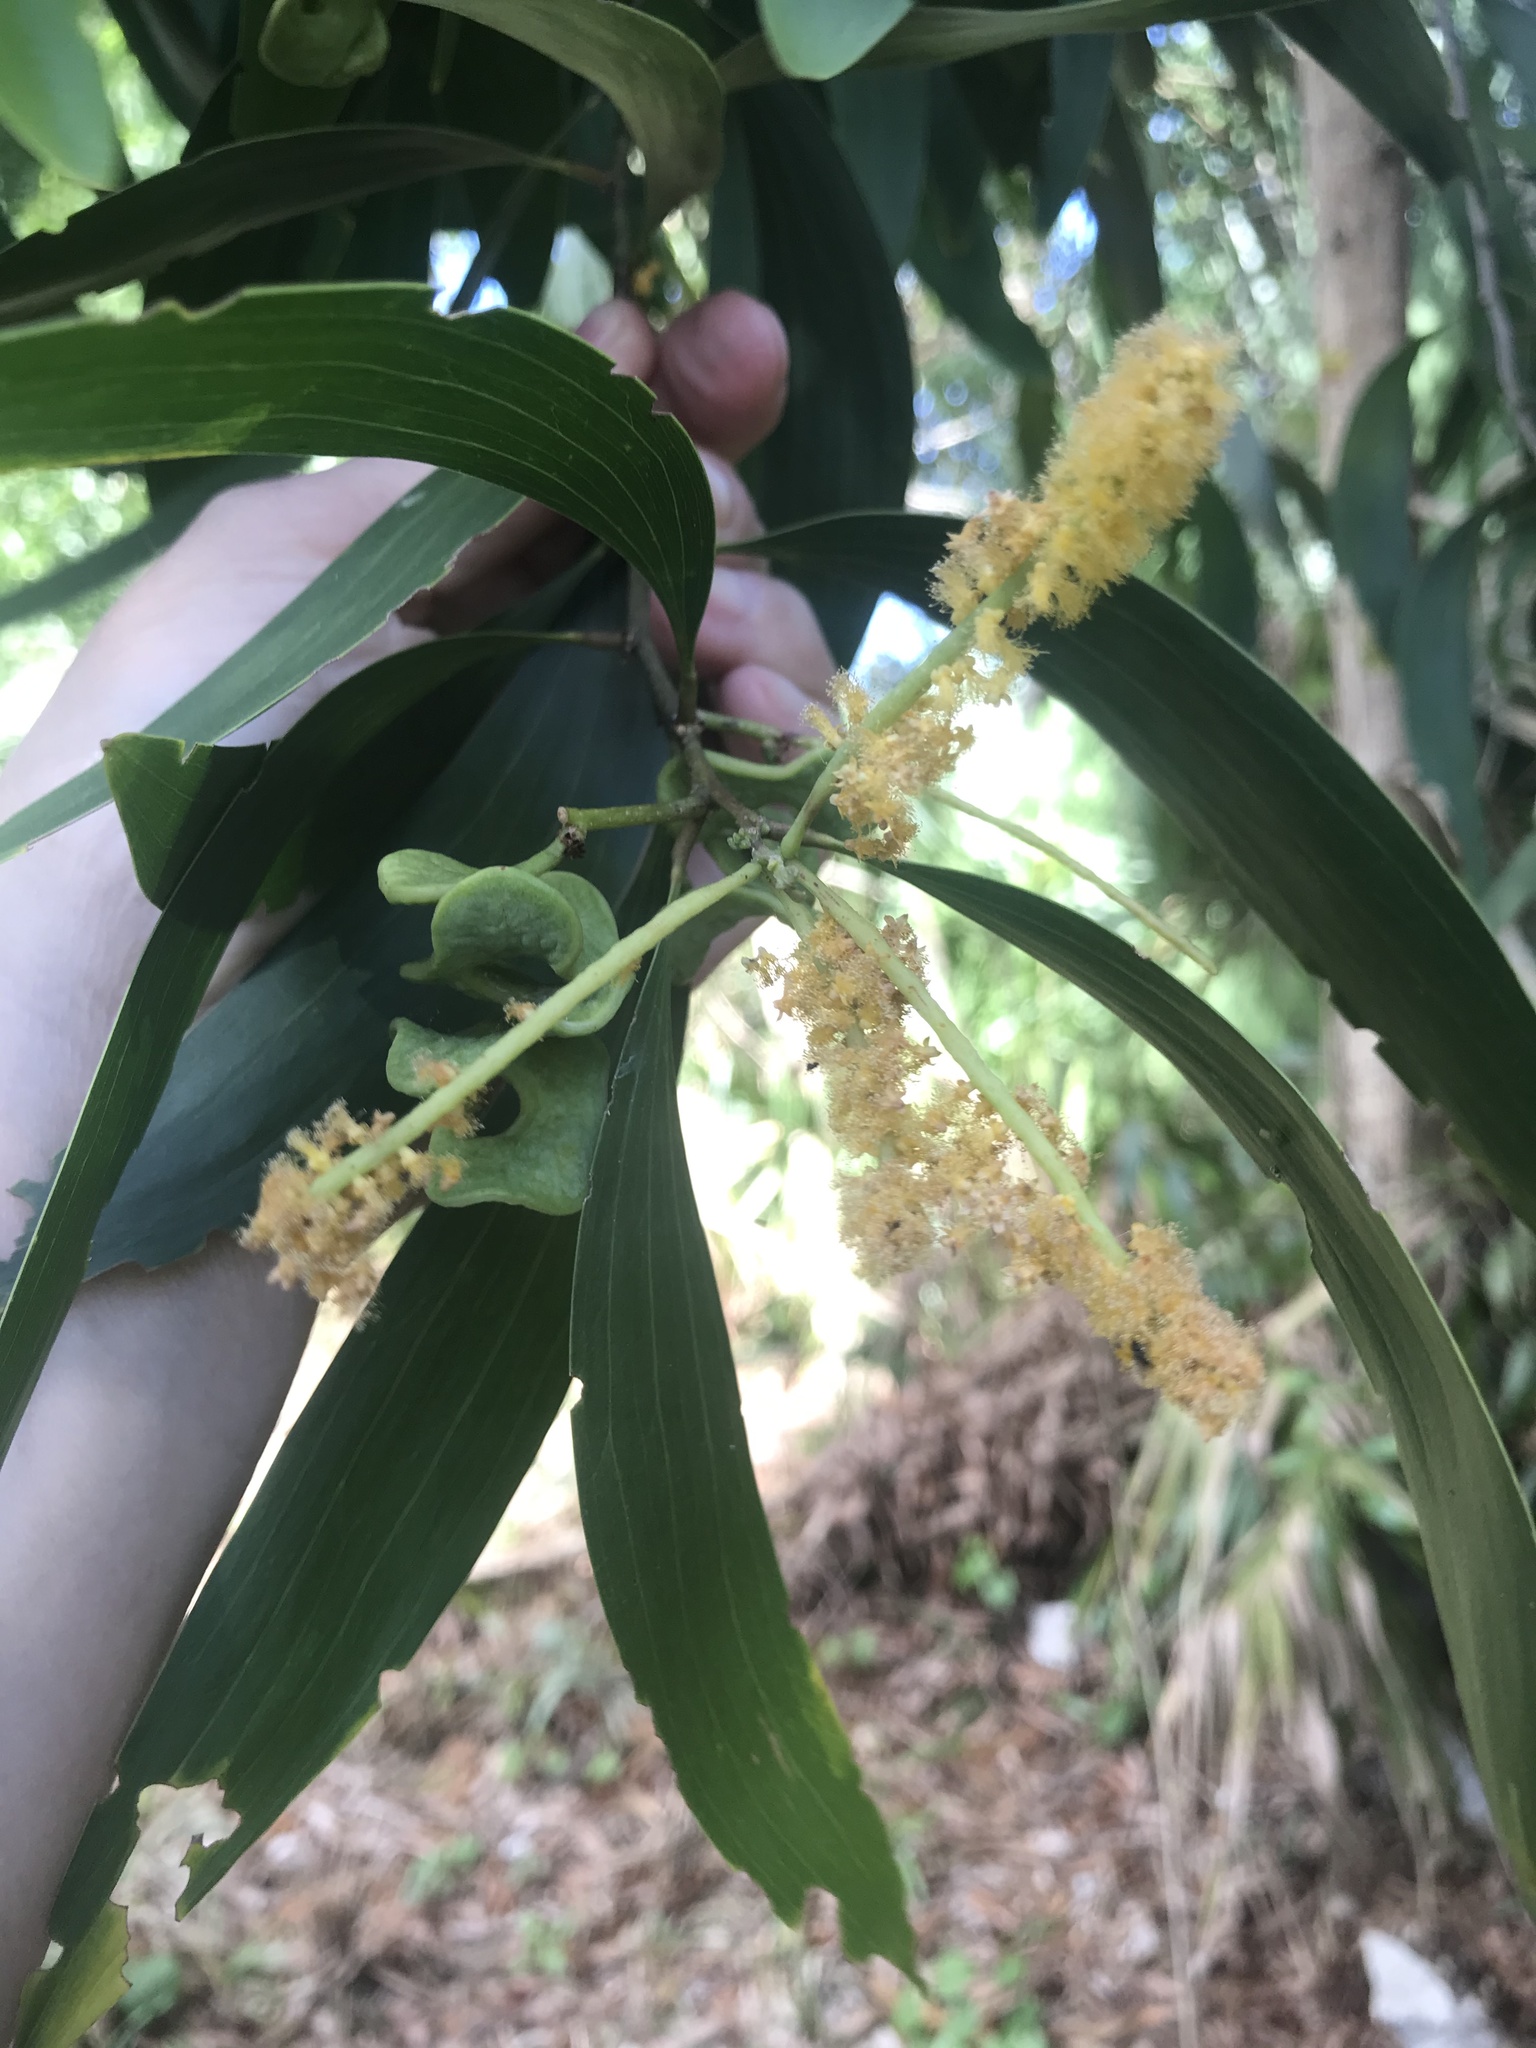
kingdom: Plantae
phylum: Tracheophyta
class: Magnoliopsida
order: Fabales
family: Fabaceae
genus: Acacia
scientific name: Acacia auriculiformis
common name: Earleaf acacia
